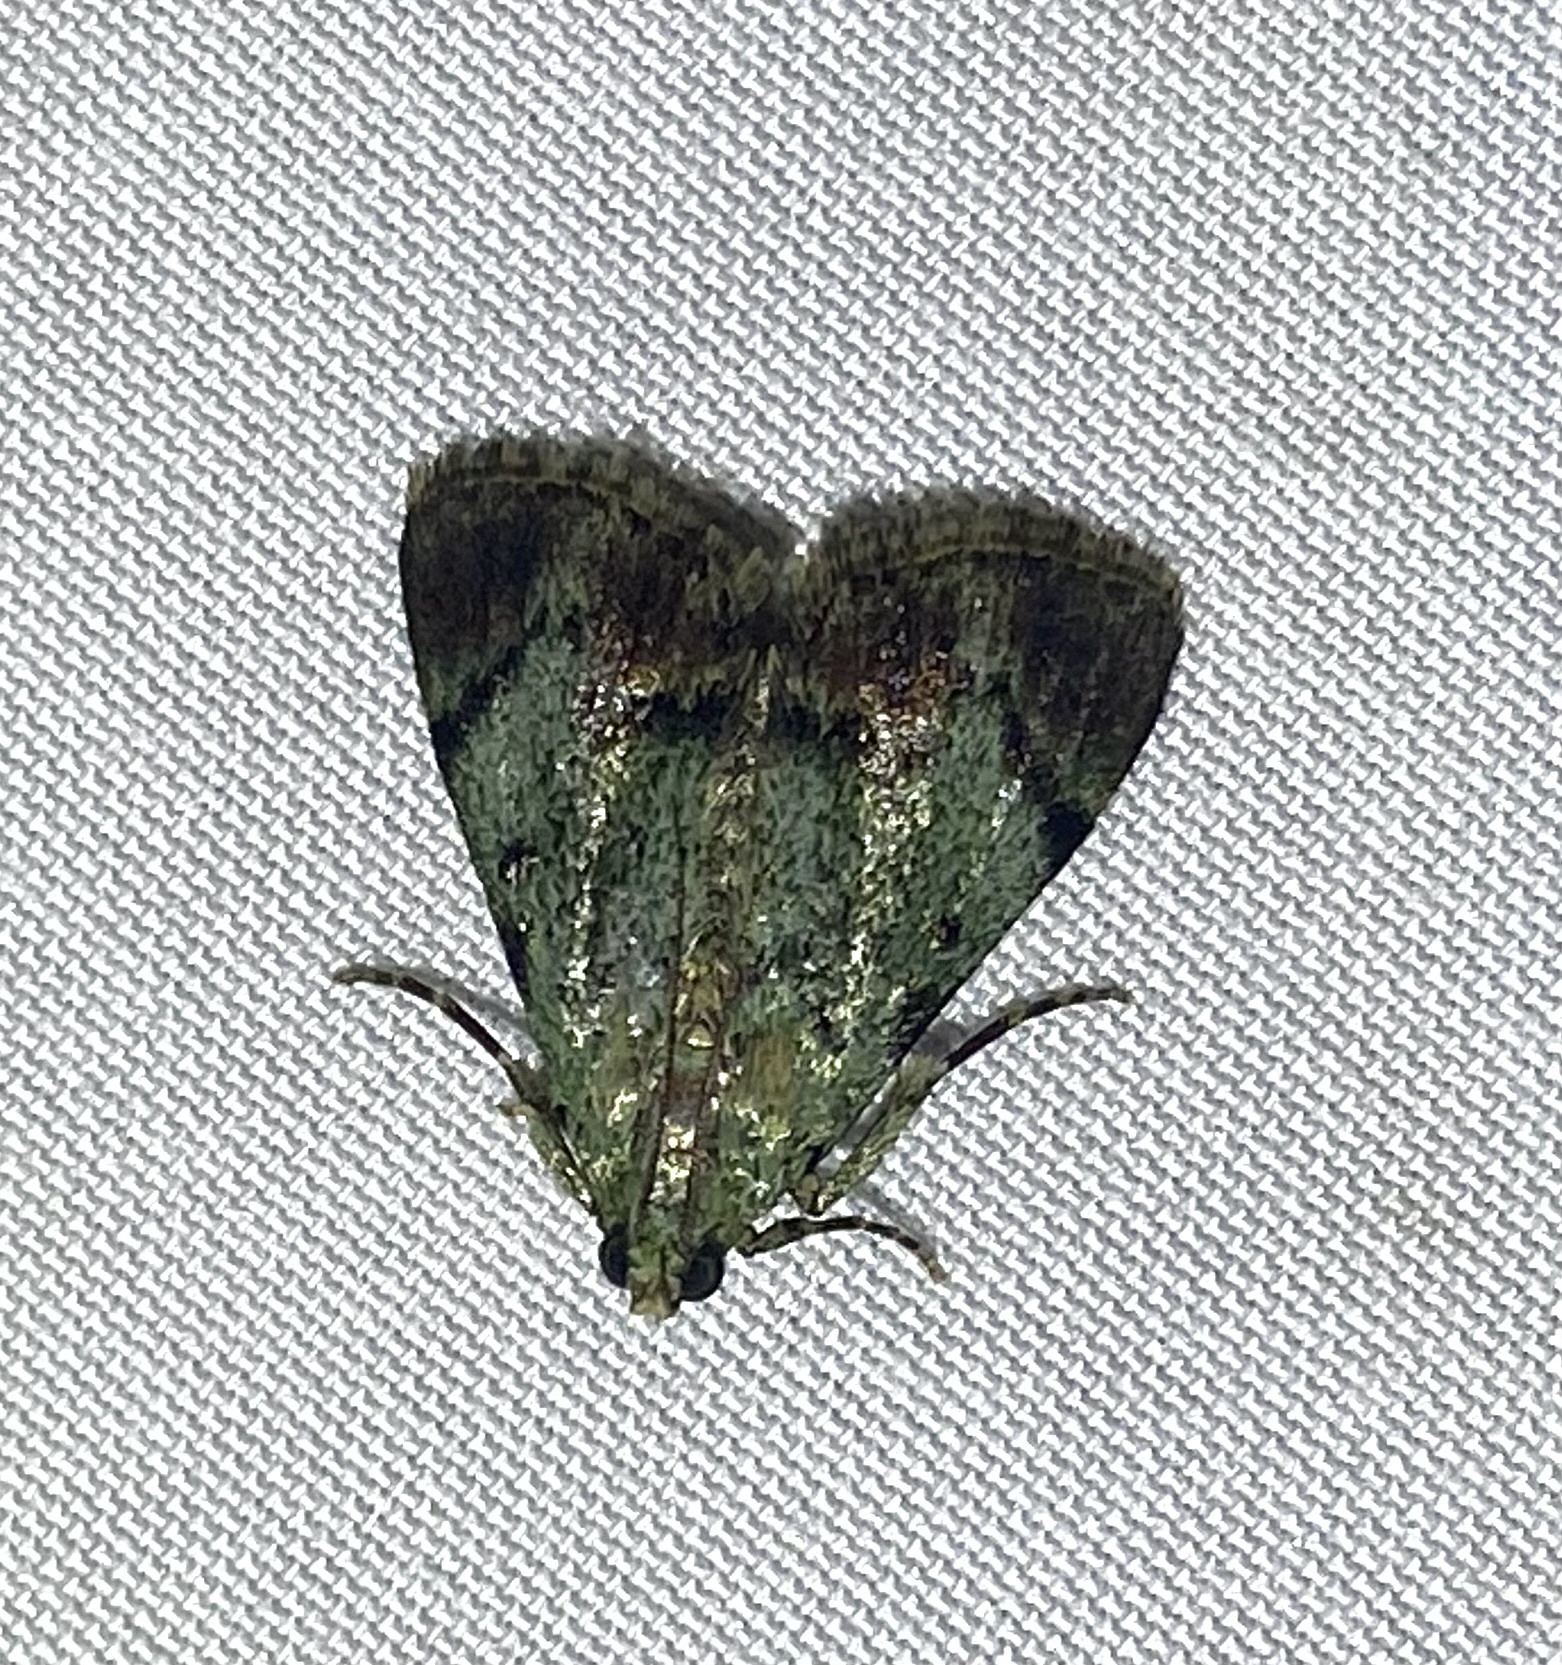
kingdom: Animalia
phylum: Arthropoda
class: Insecta
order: Lepidoptera
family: Pyralidae
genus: Epipaschia
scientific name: Epipaschia superatalis
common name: Dimorphic macalla moth
